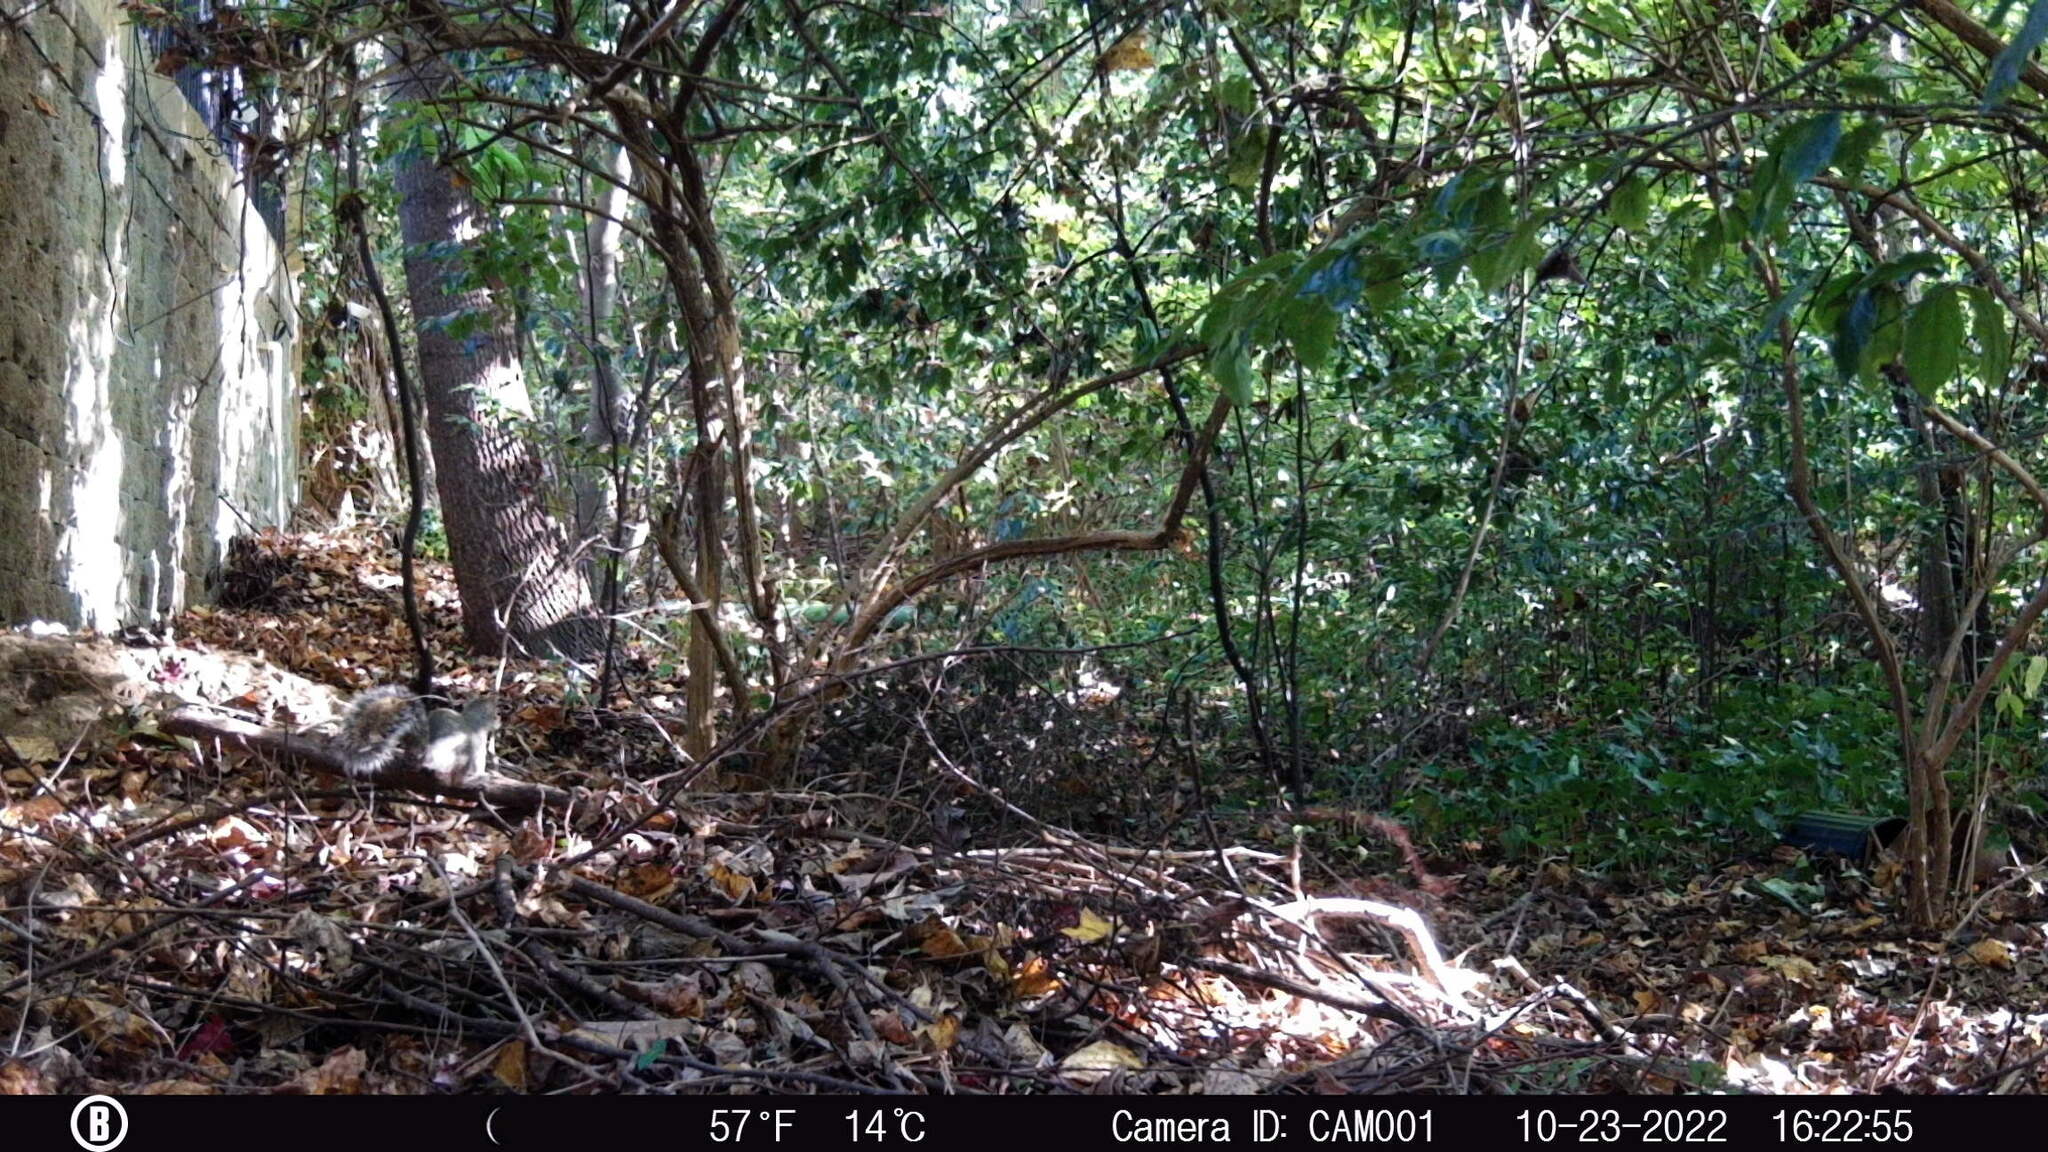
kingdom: Animalia
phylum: Chordata
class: Mammalia
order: Rodentia
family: Sciuridae
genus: Sciurus
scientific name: Sciurus carolinensis
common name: Eastern gray squirrel
